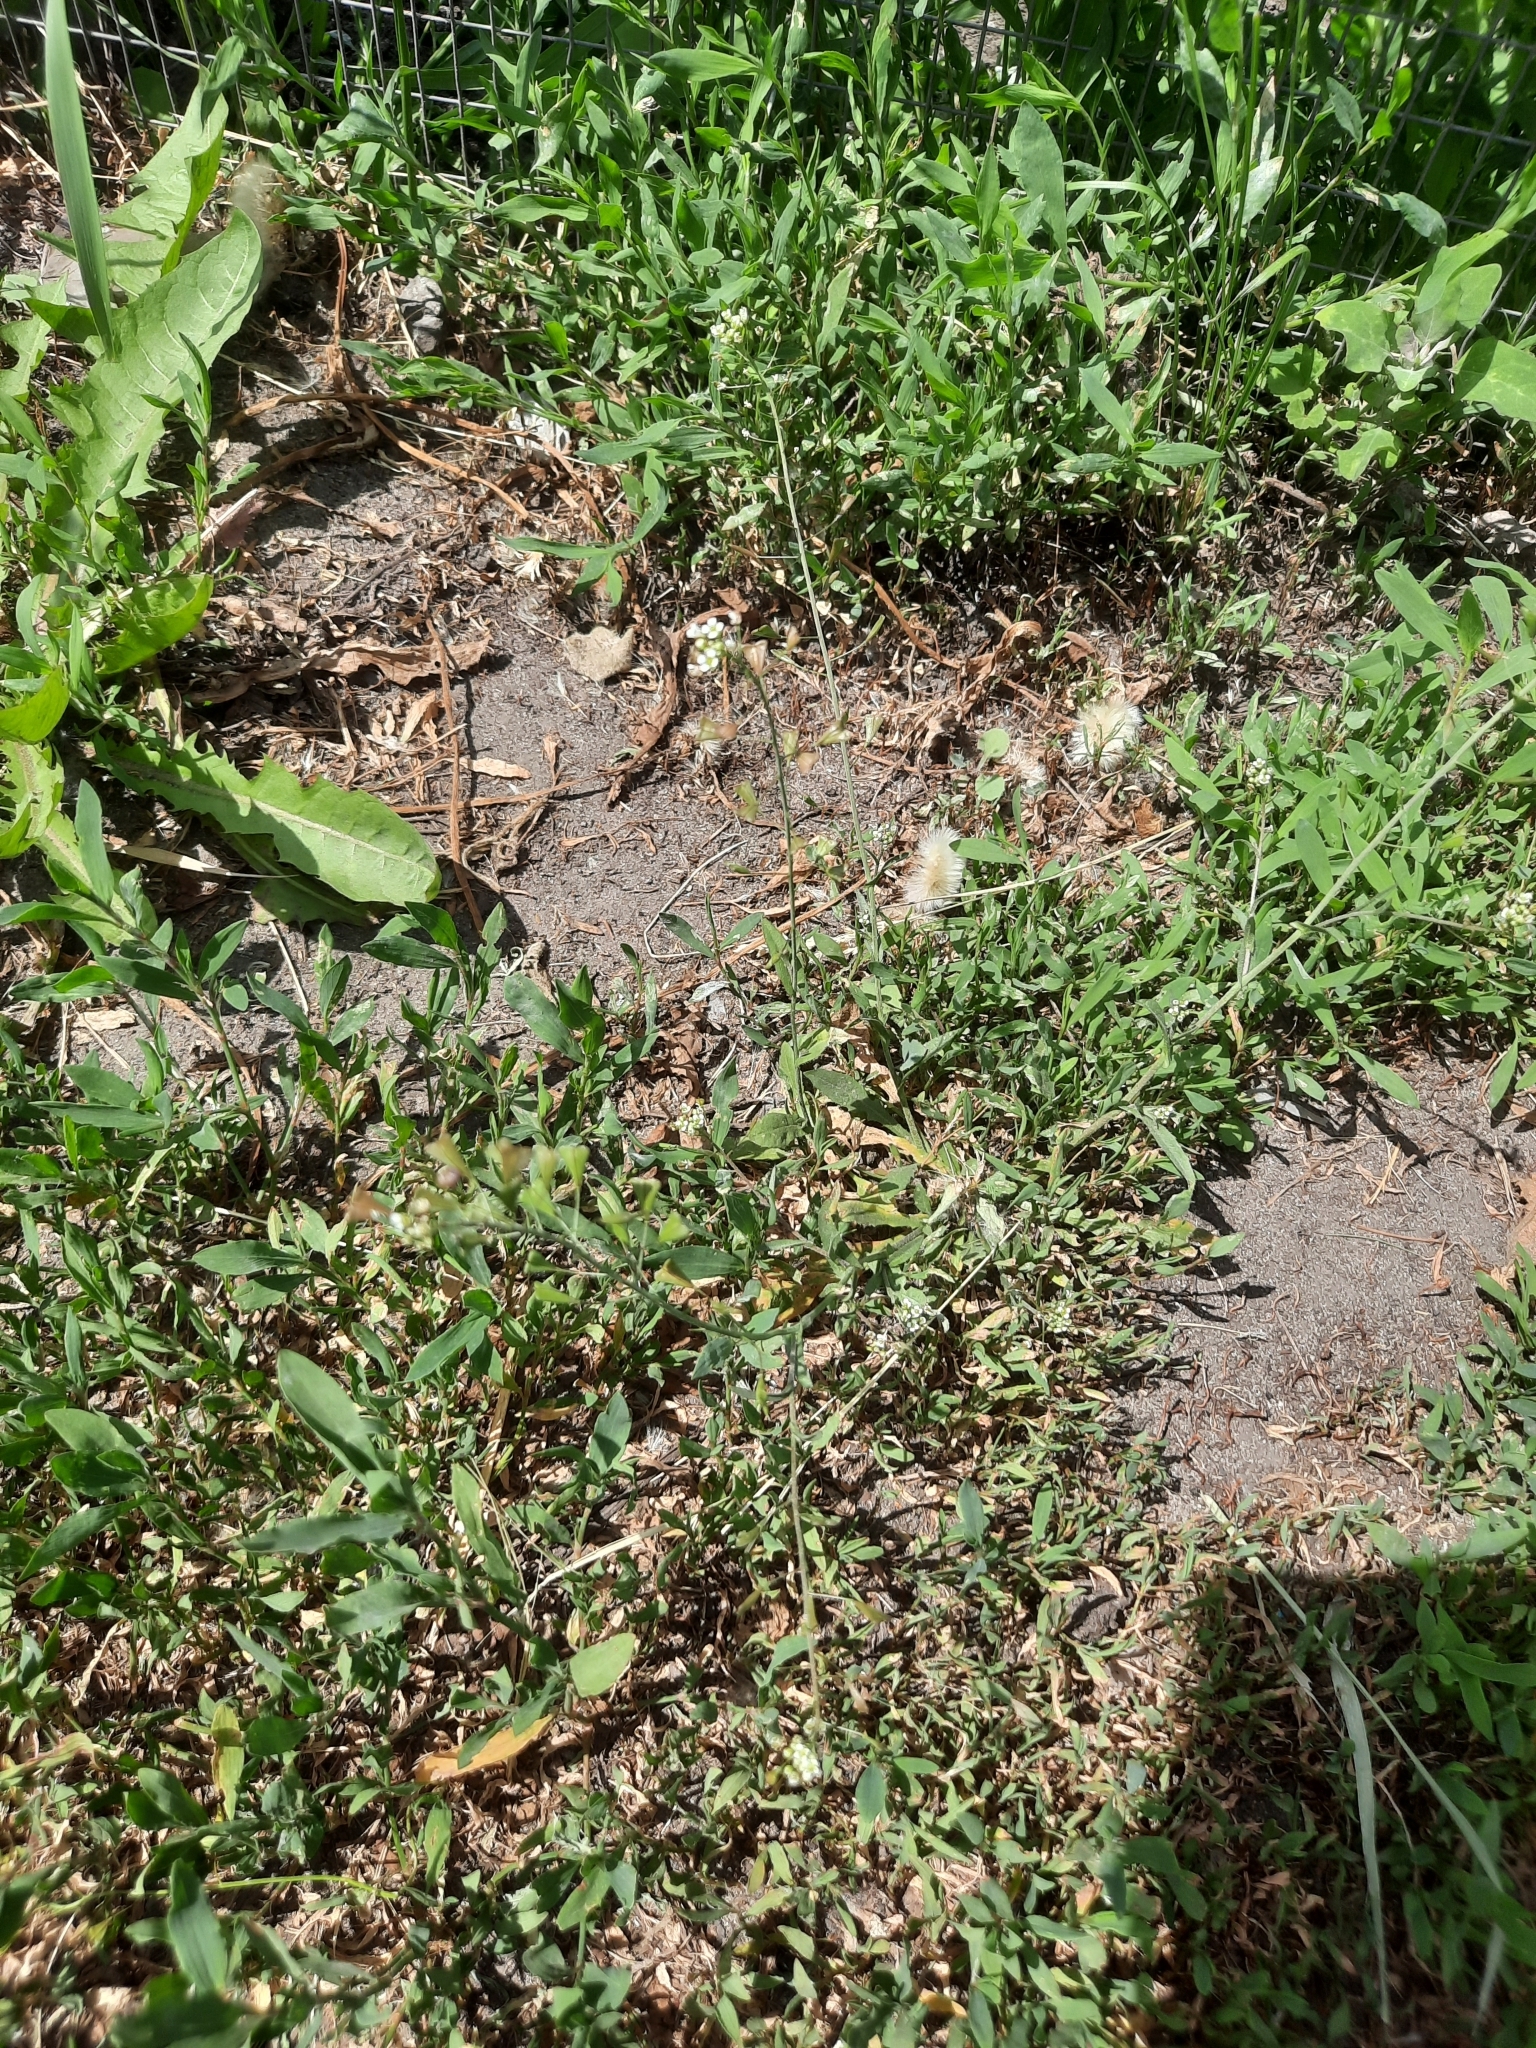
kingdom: Plantae
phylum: Tracheophyta
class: Magnoliopsida
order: Brassicales
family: Brassicaceae
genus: Capsella
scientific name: Capsella bursa-pastoris
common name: Shepherd's purse
